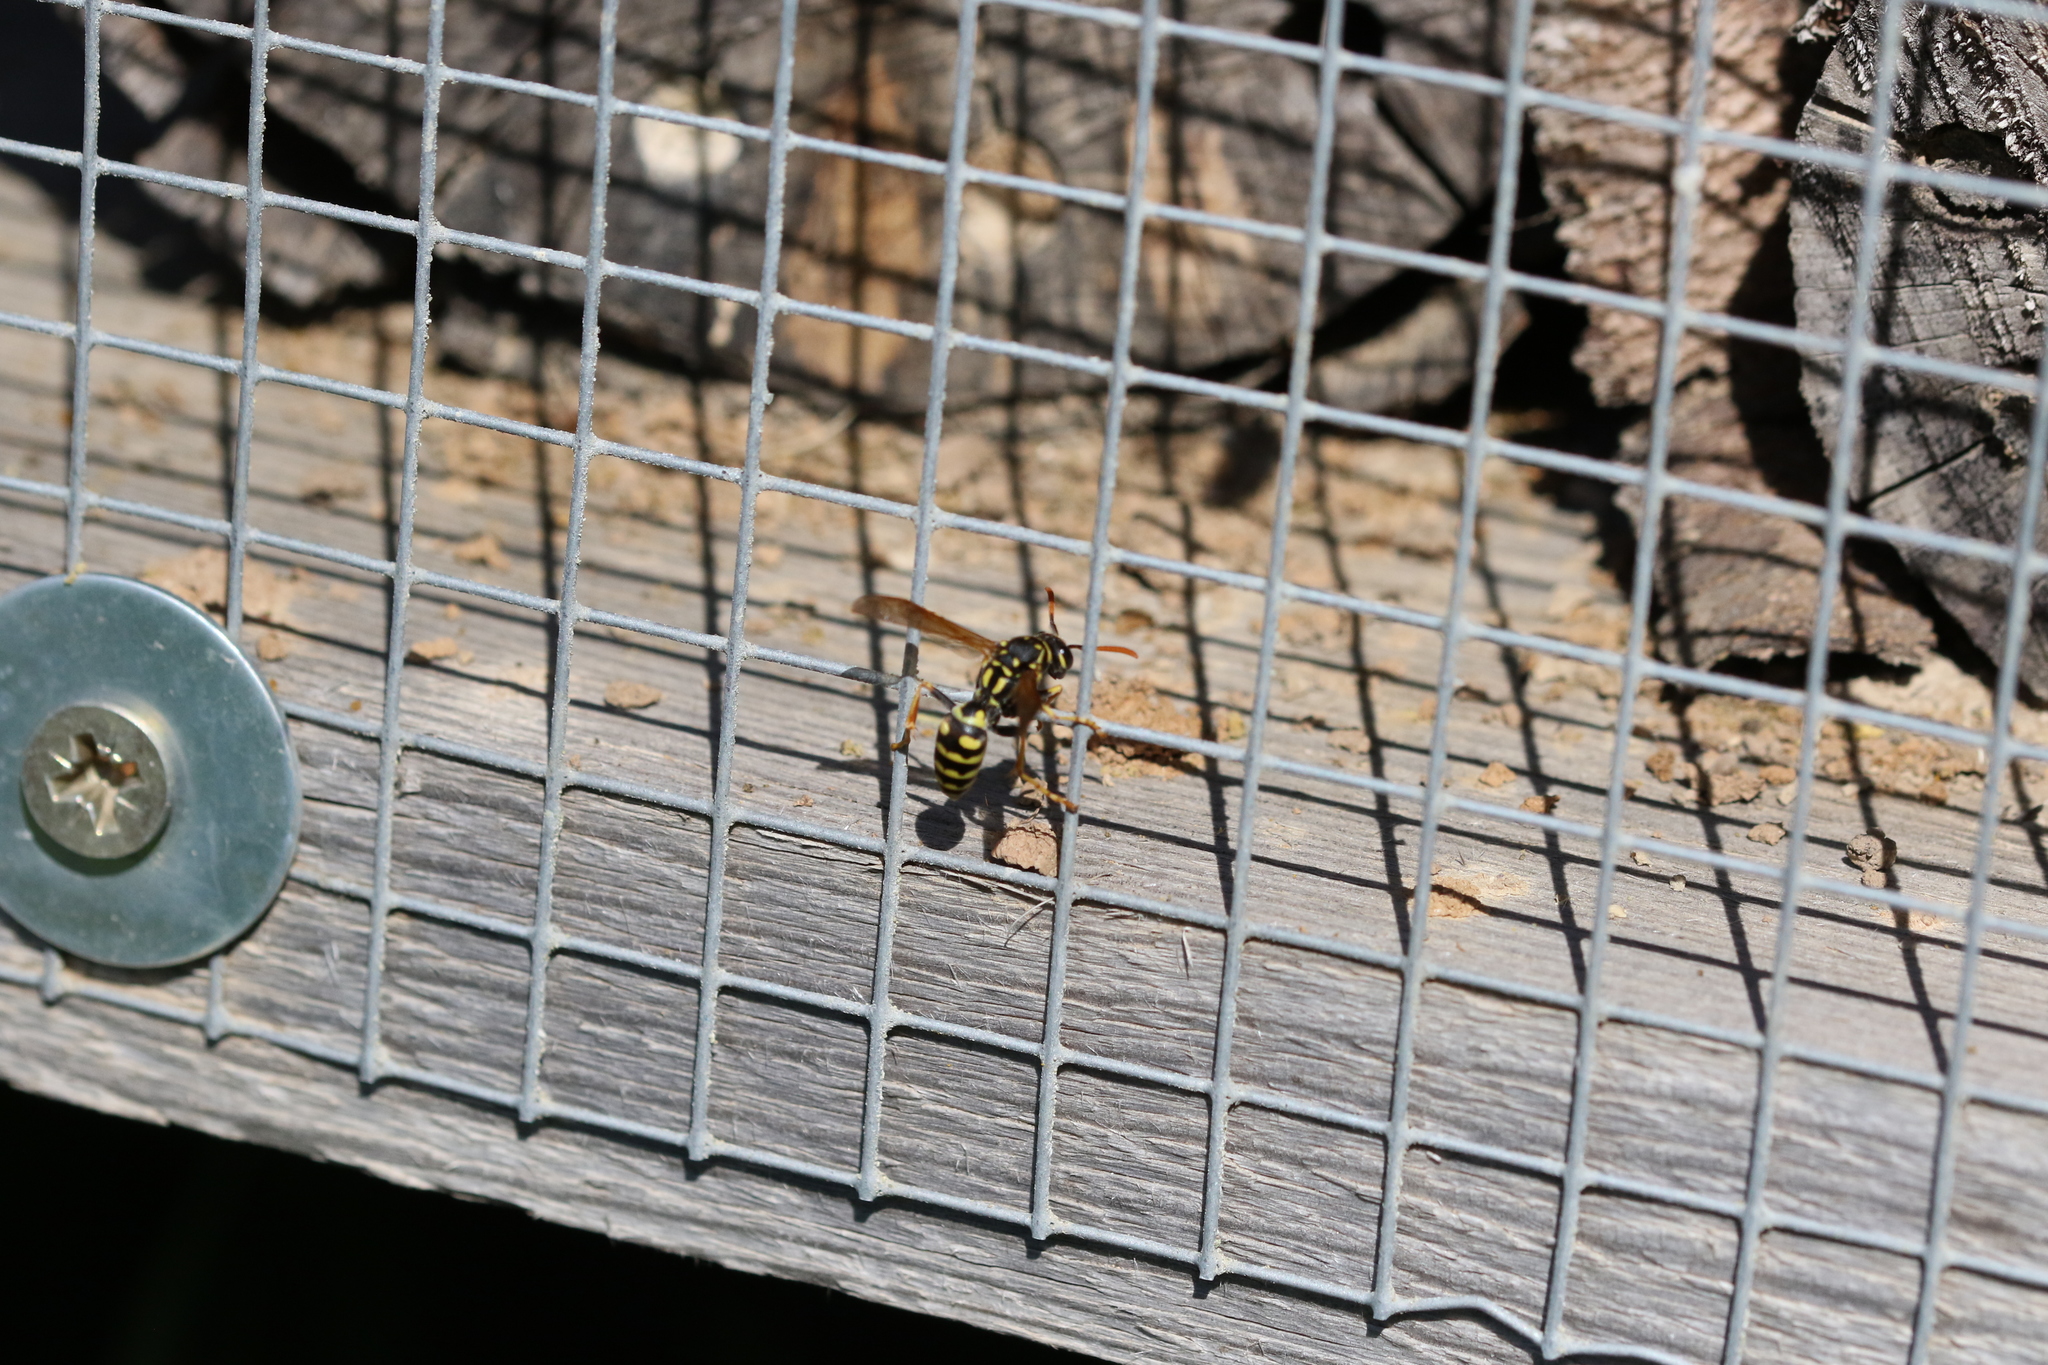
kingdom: Animalia
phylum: Arthropoda
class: Insecta
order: Hymenoptera
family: Eumenidae
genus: Polistes
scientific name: Polistes dominula
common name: Paper wasp
